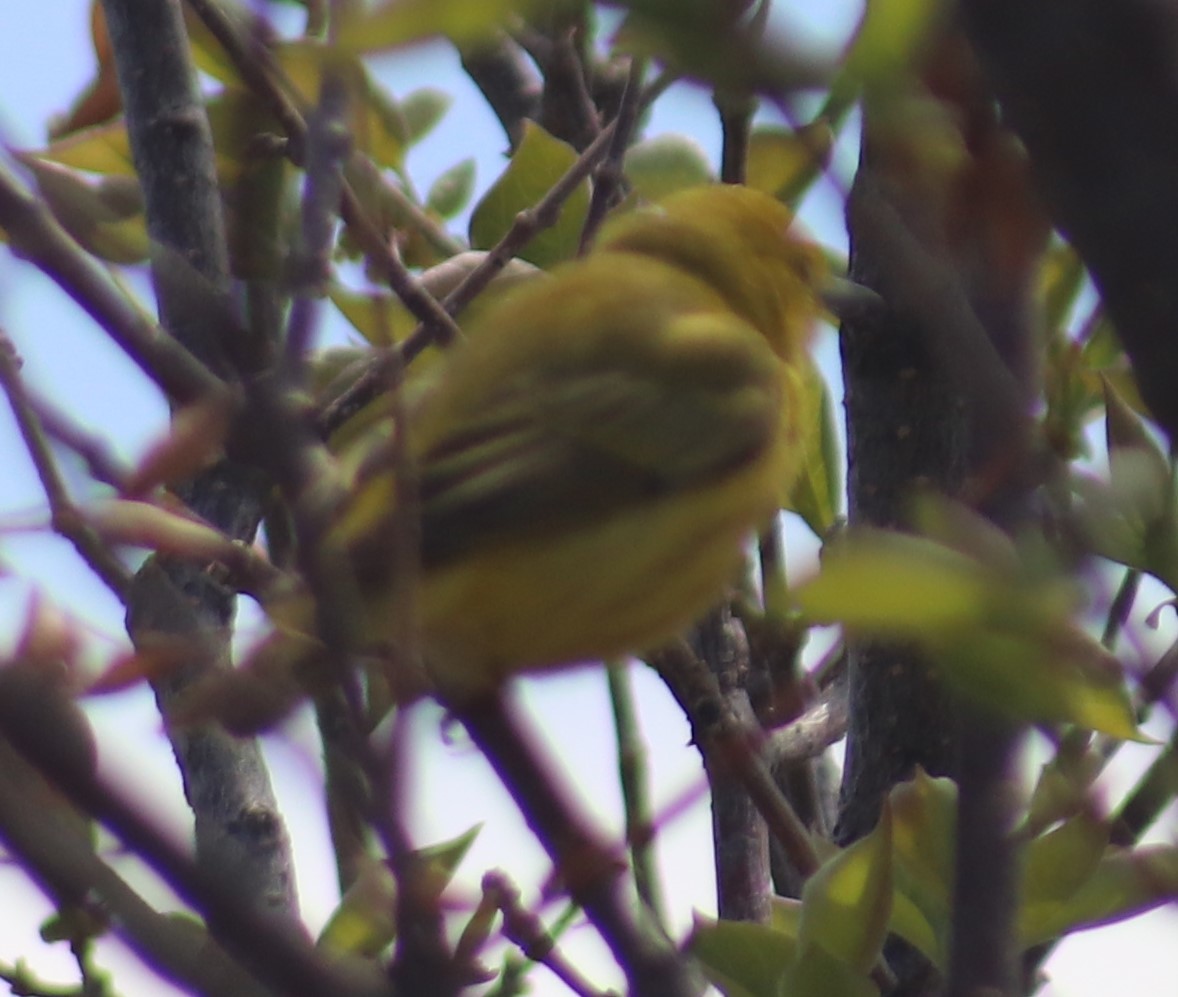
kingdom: Animalia
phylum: Chordata
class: Aves
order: Passeriformes
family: Parulidae
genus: Setophaga
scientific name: Setophaga petechia
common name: Yellow warbler
